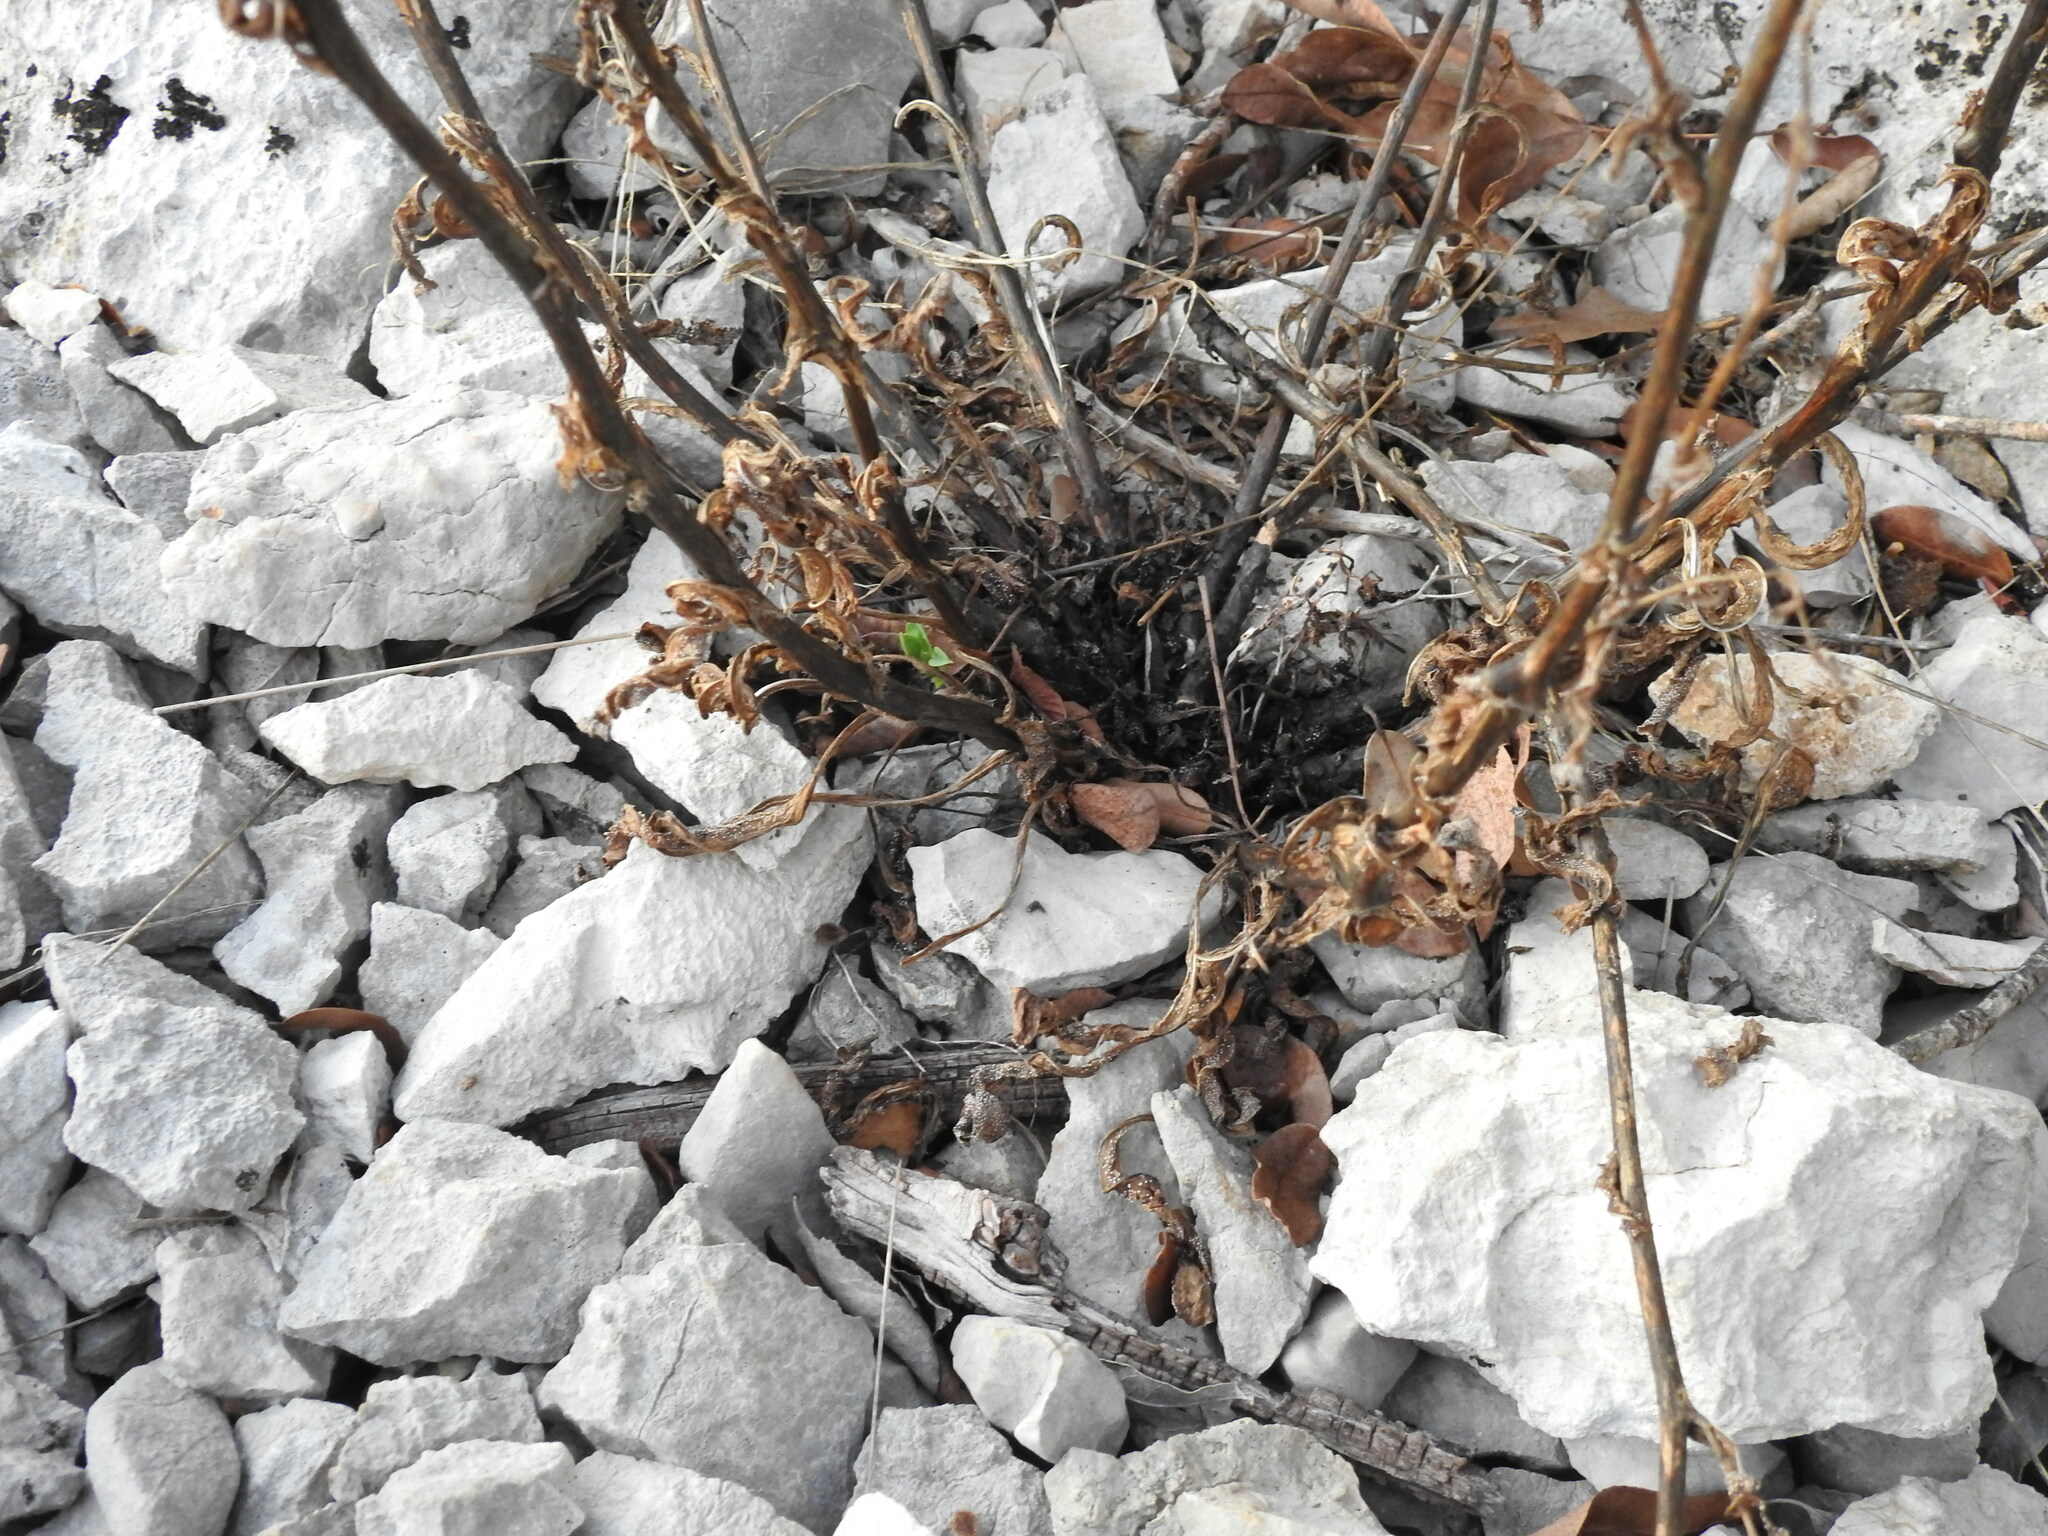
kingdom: Plantae
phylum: Tracheophyta
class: Magnoliopsida
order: Boraginales
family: Boraginaceae
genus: Cynoglossum
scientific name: Cynoglossum pustulatum
